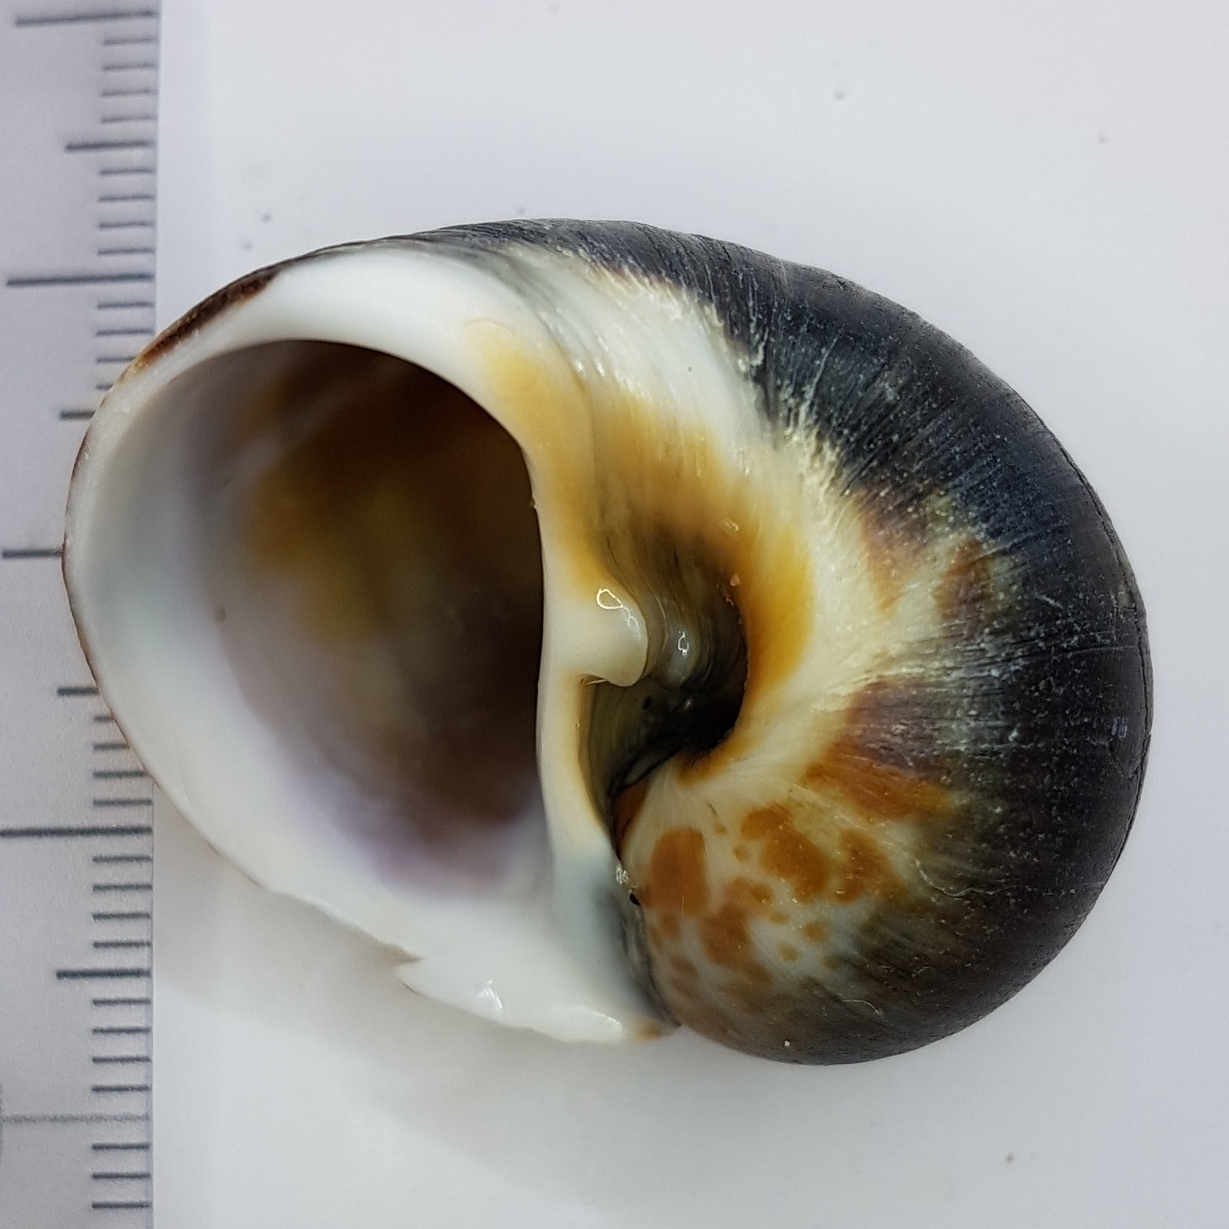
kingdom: Animalia
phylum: Mollusca
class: Gastropoda
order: Littorinimorpha
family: Naticidae
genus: Naticarius
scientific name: Naticarius hebraeus
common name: Hebrew moon shell
